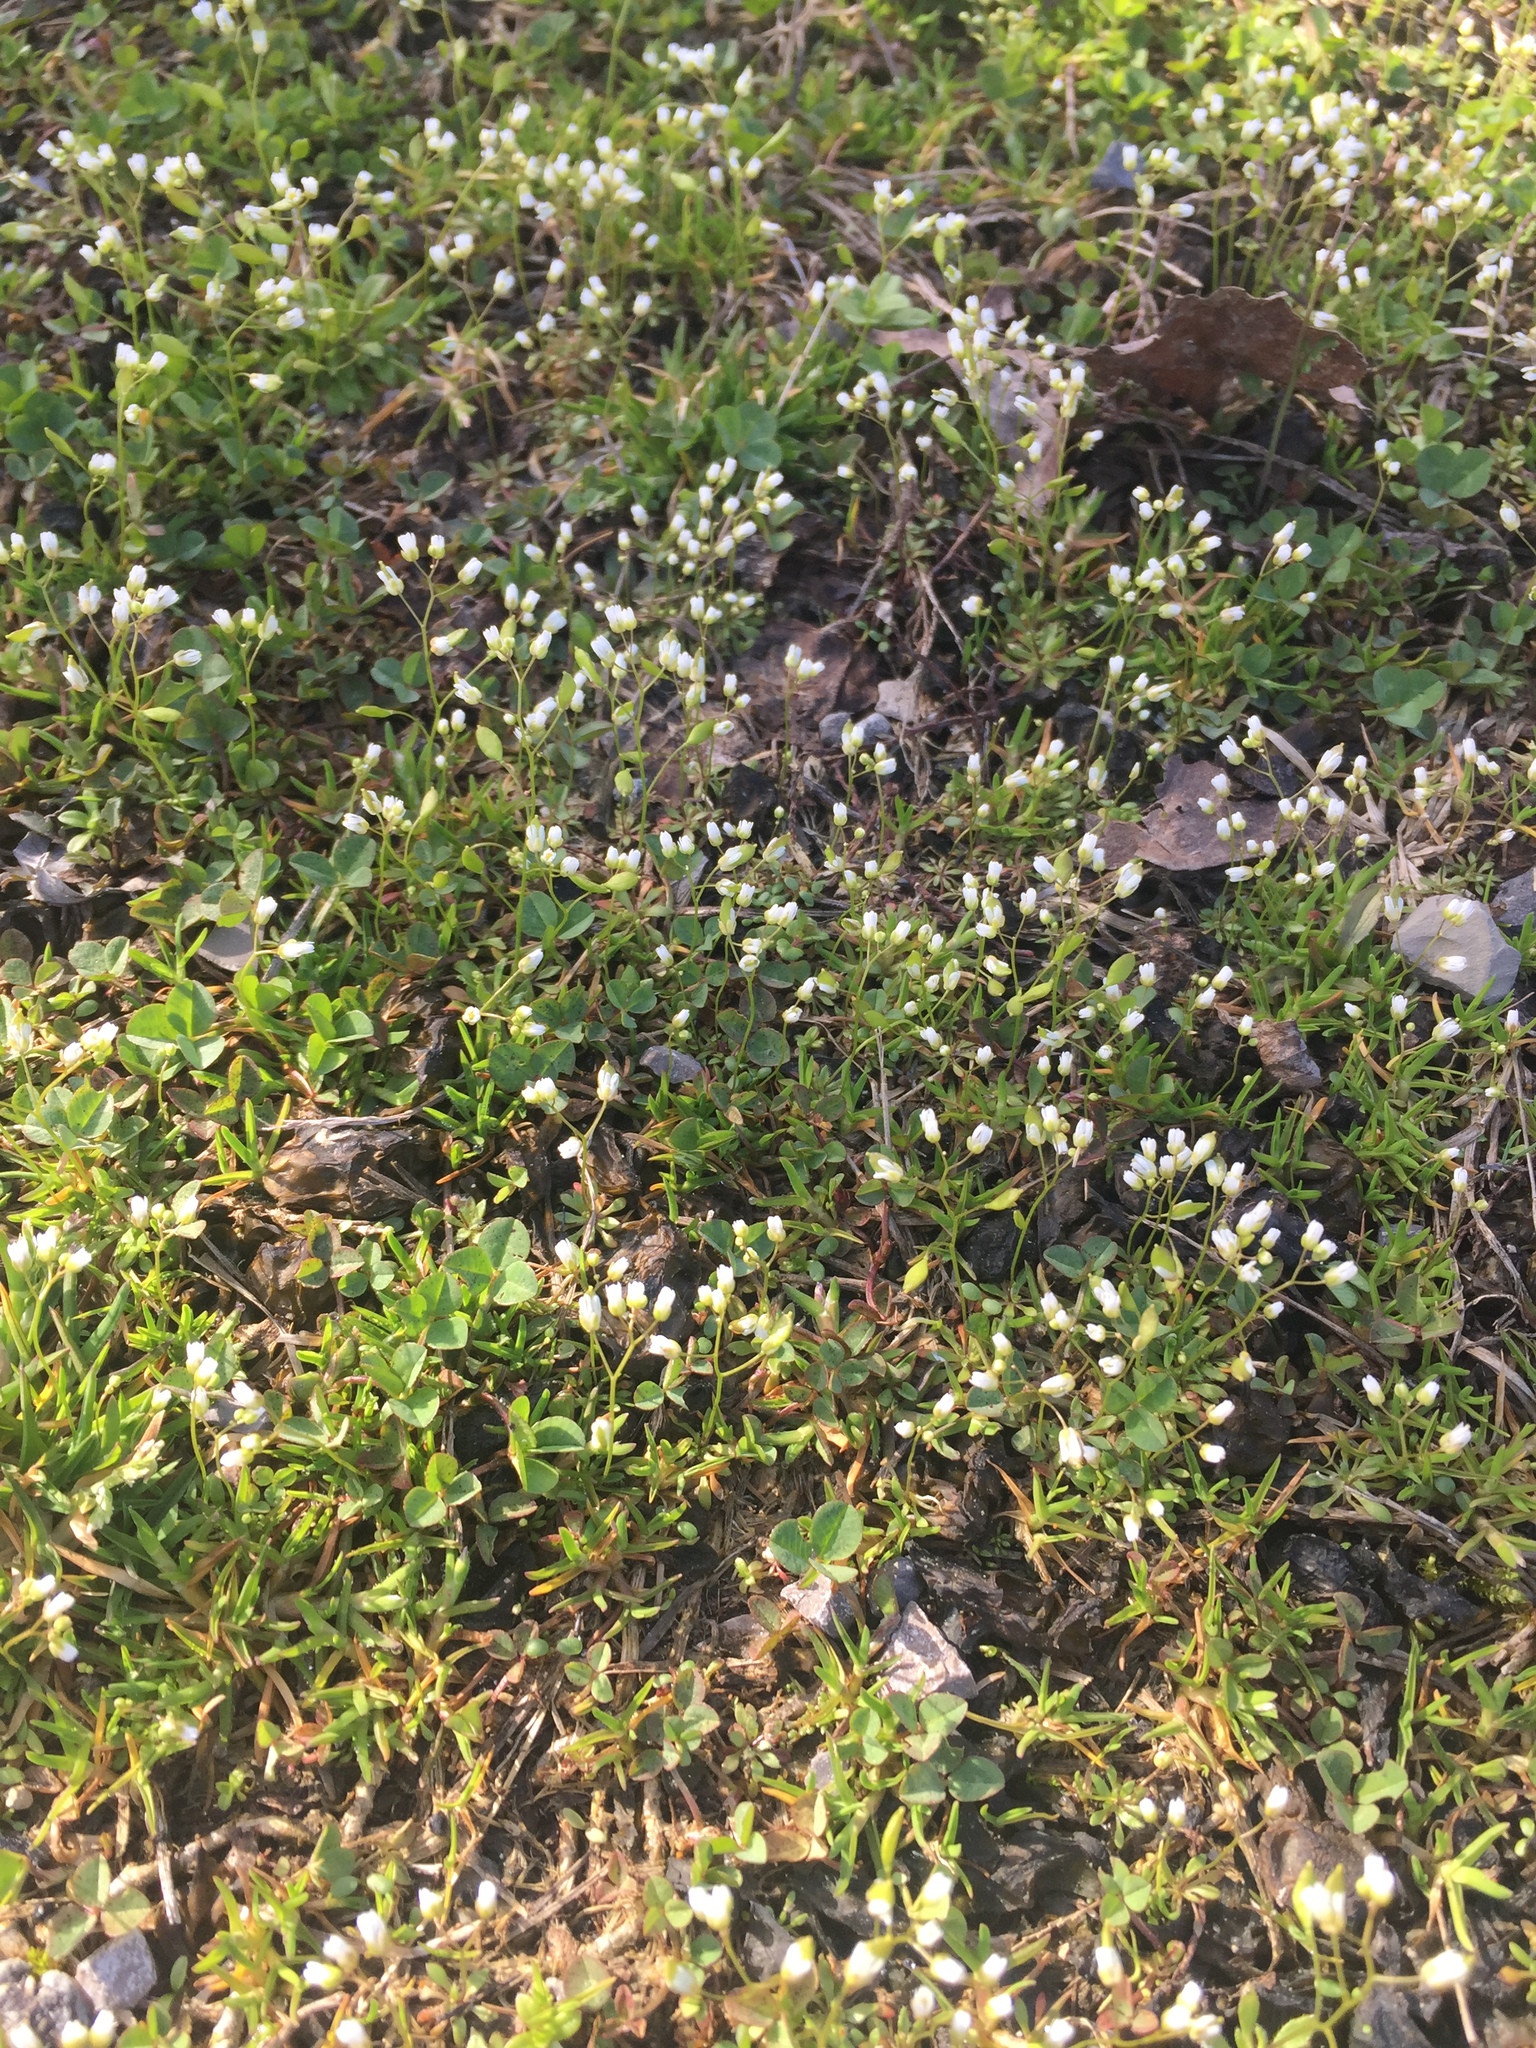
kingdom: Plantae
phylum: Tracheophyta
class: Magnoliopsida
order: Brassicales
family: Brassicaceae
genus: Draba
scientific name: Draba verna
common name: Spring draba
